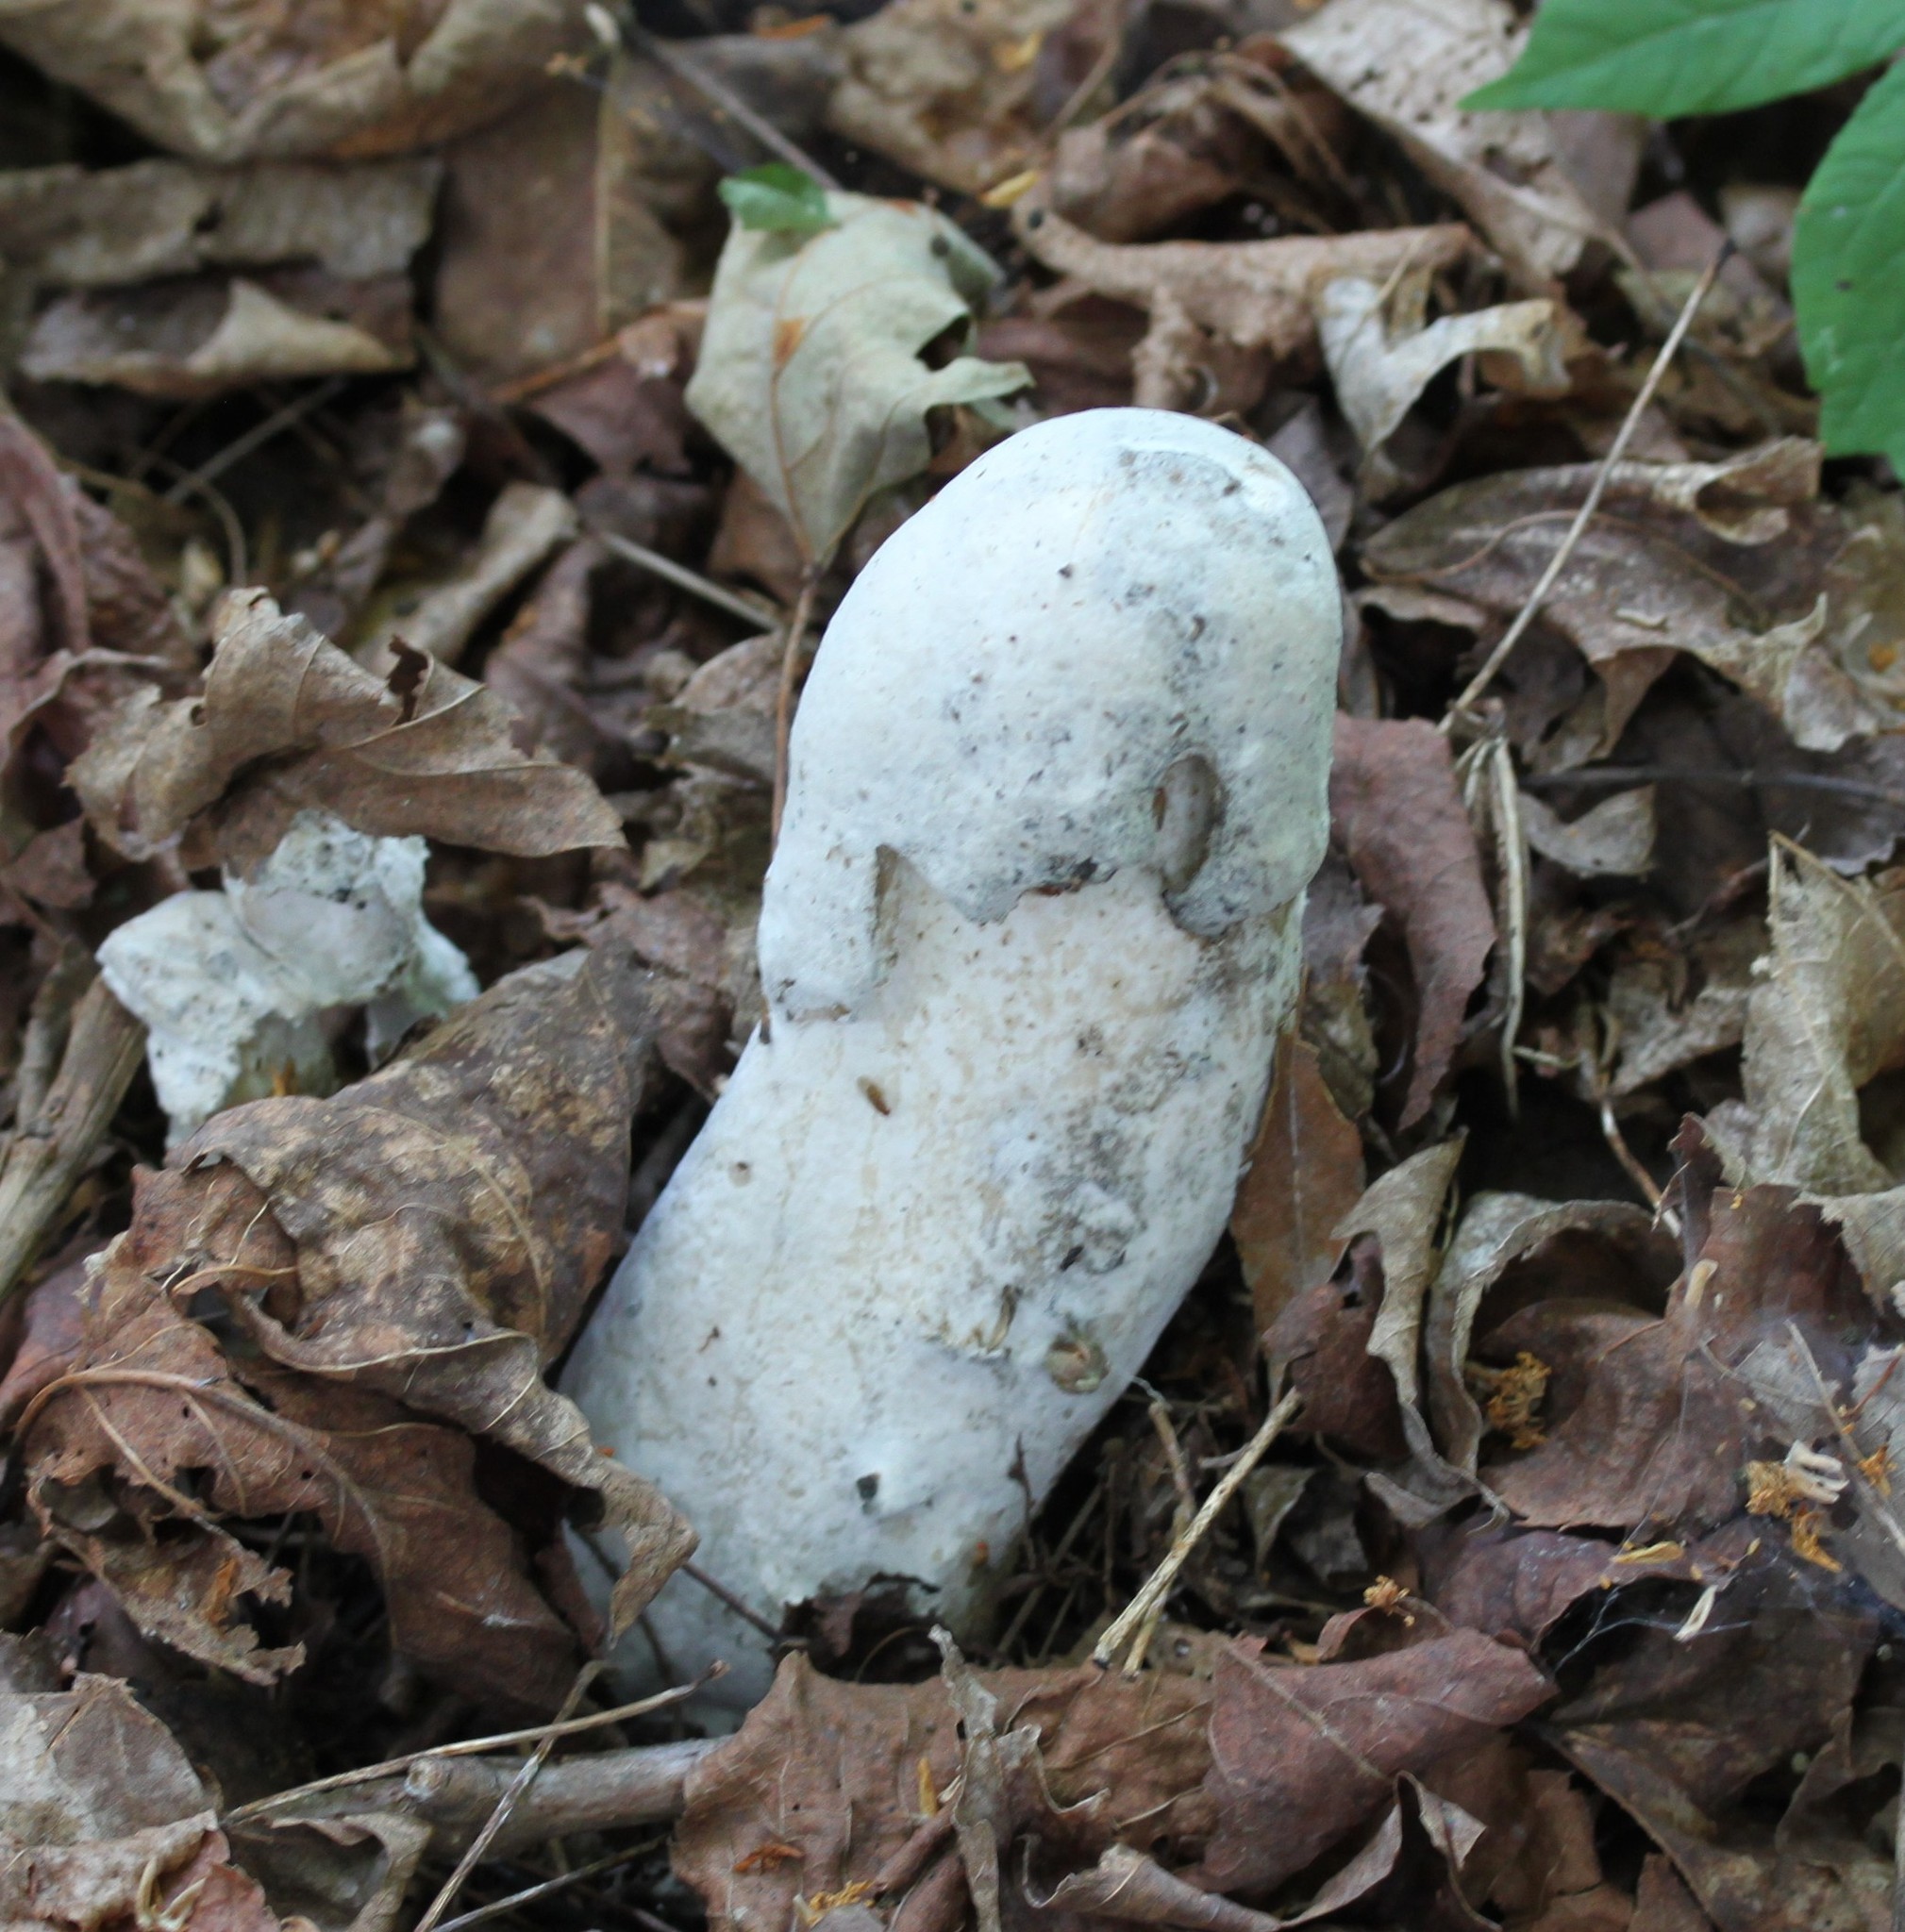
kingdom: Fungi
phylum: Ascomycota
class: Sordariomycetes
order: Hypocreales
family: Hypocreaceae
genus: Hypomyces
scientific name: Hypomyces hyalinus
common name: Amanita mold
